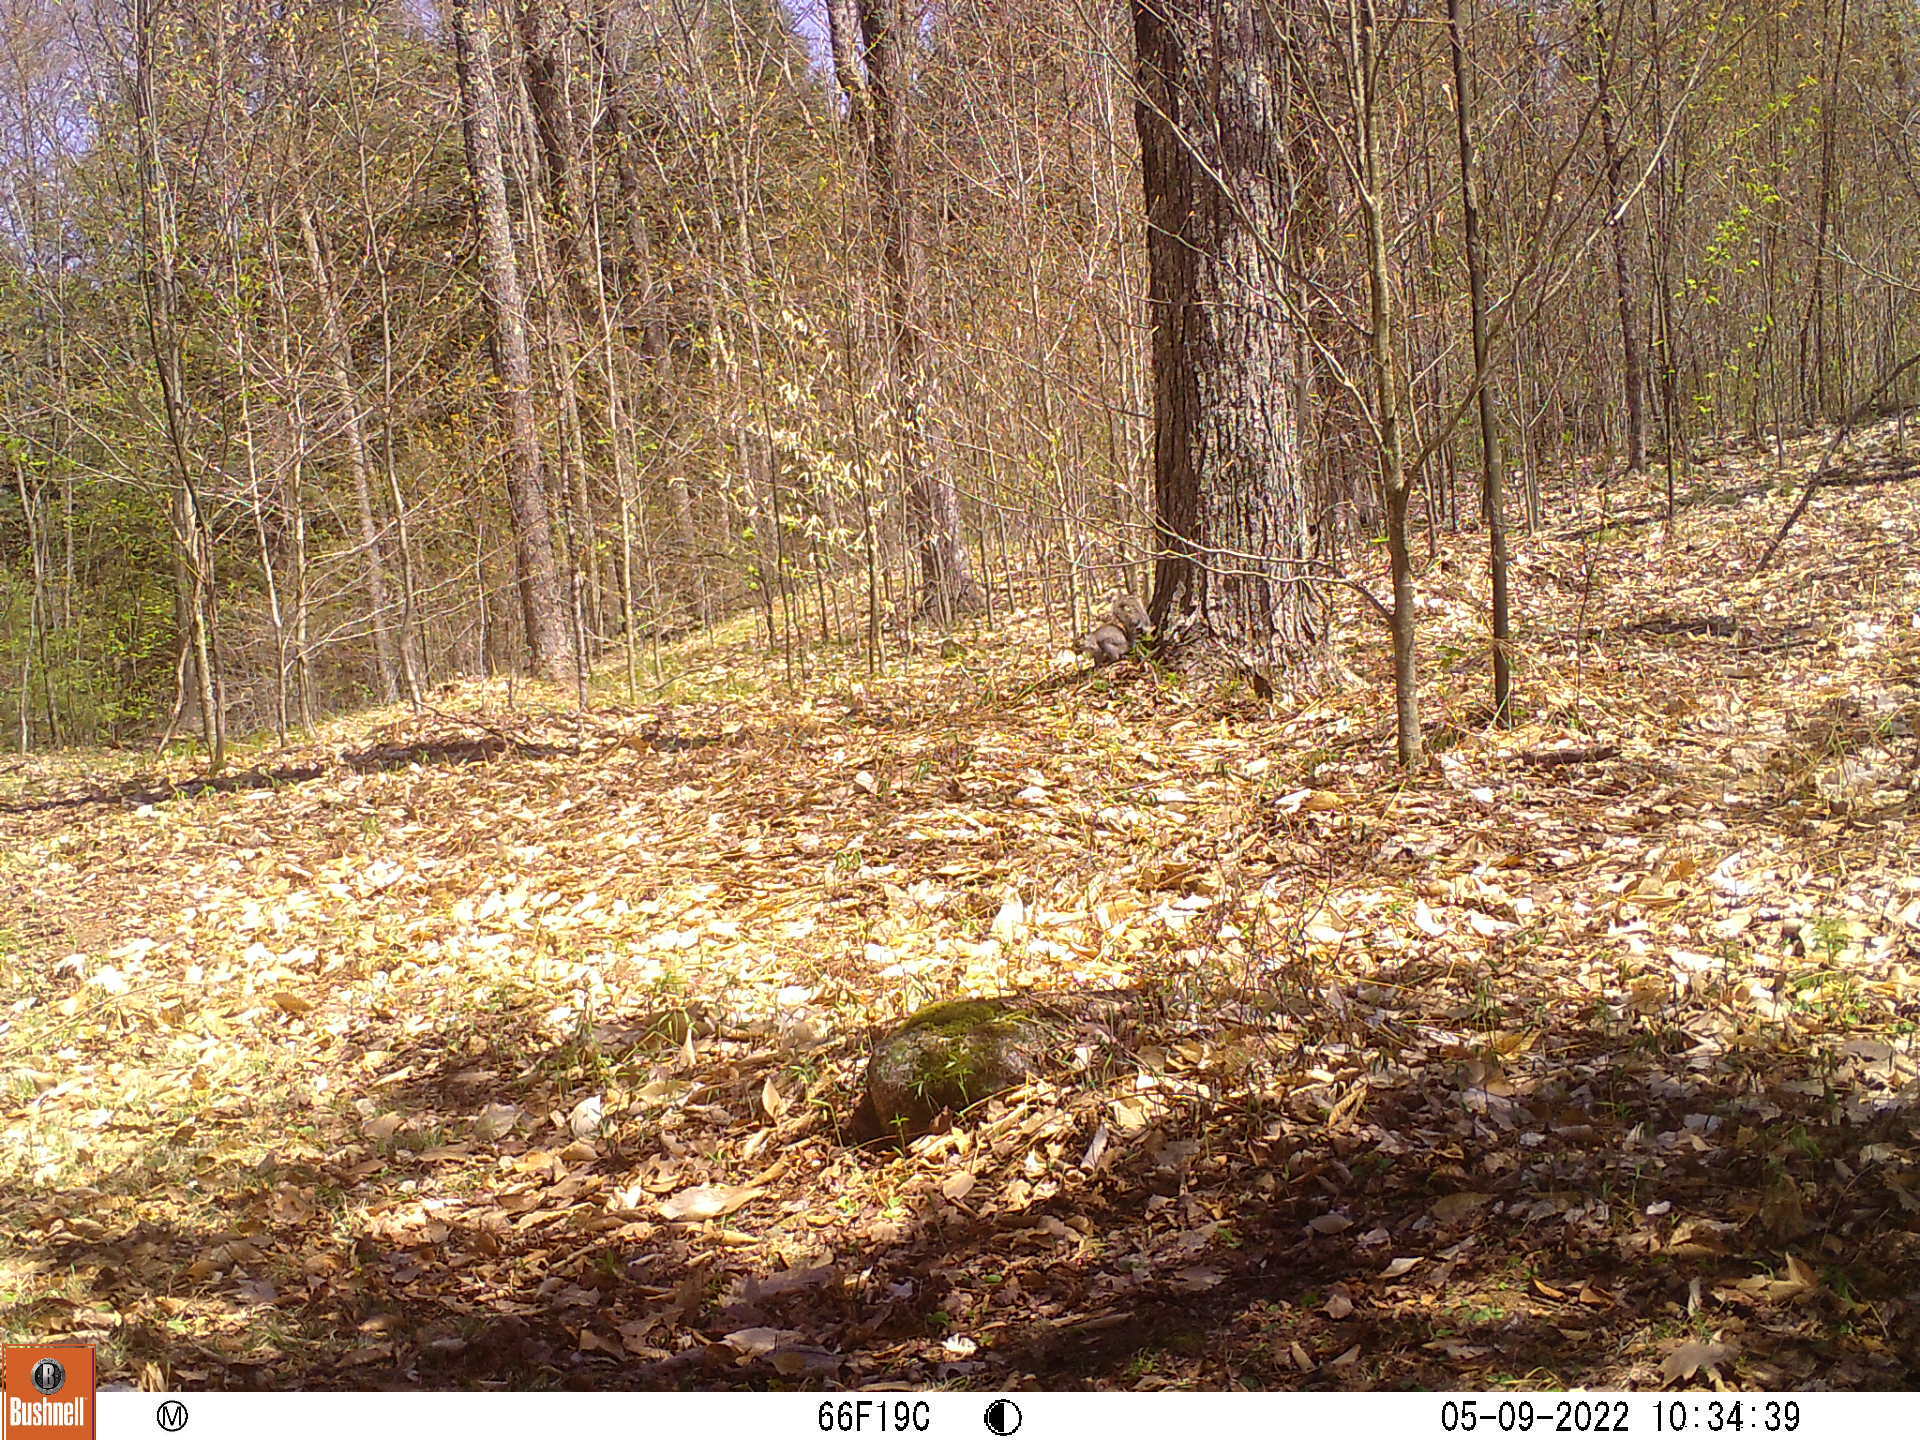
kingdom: Animalia
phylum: Chordata
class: Mammalia
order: Rodentia
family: Sciuridae
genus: Sciurus
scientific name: Sciurus carolinensis
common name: Eastern gray squirrel
